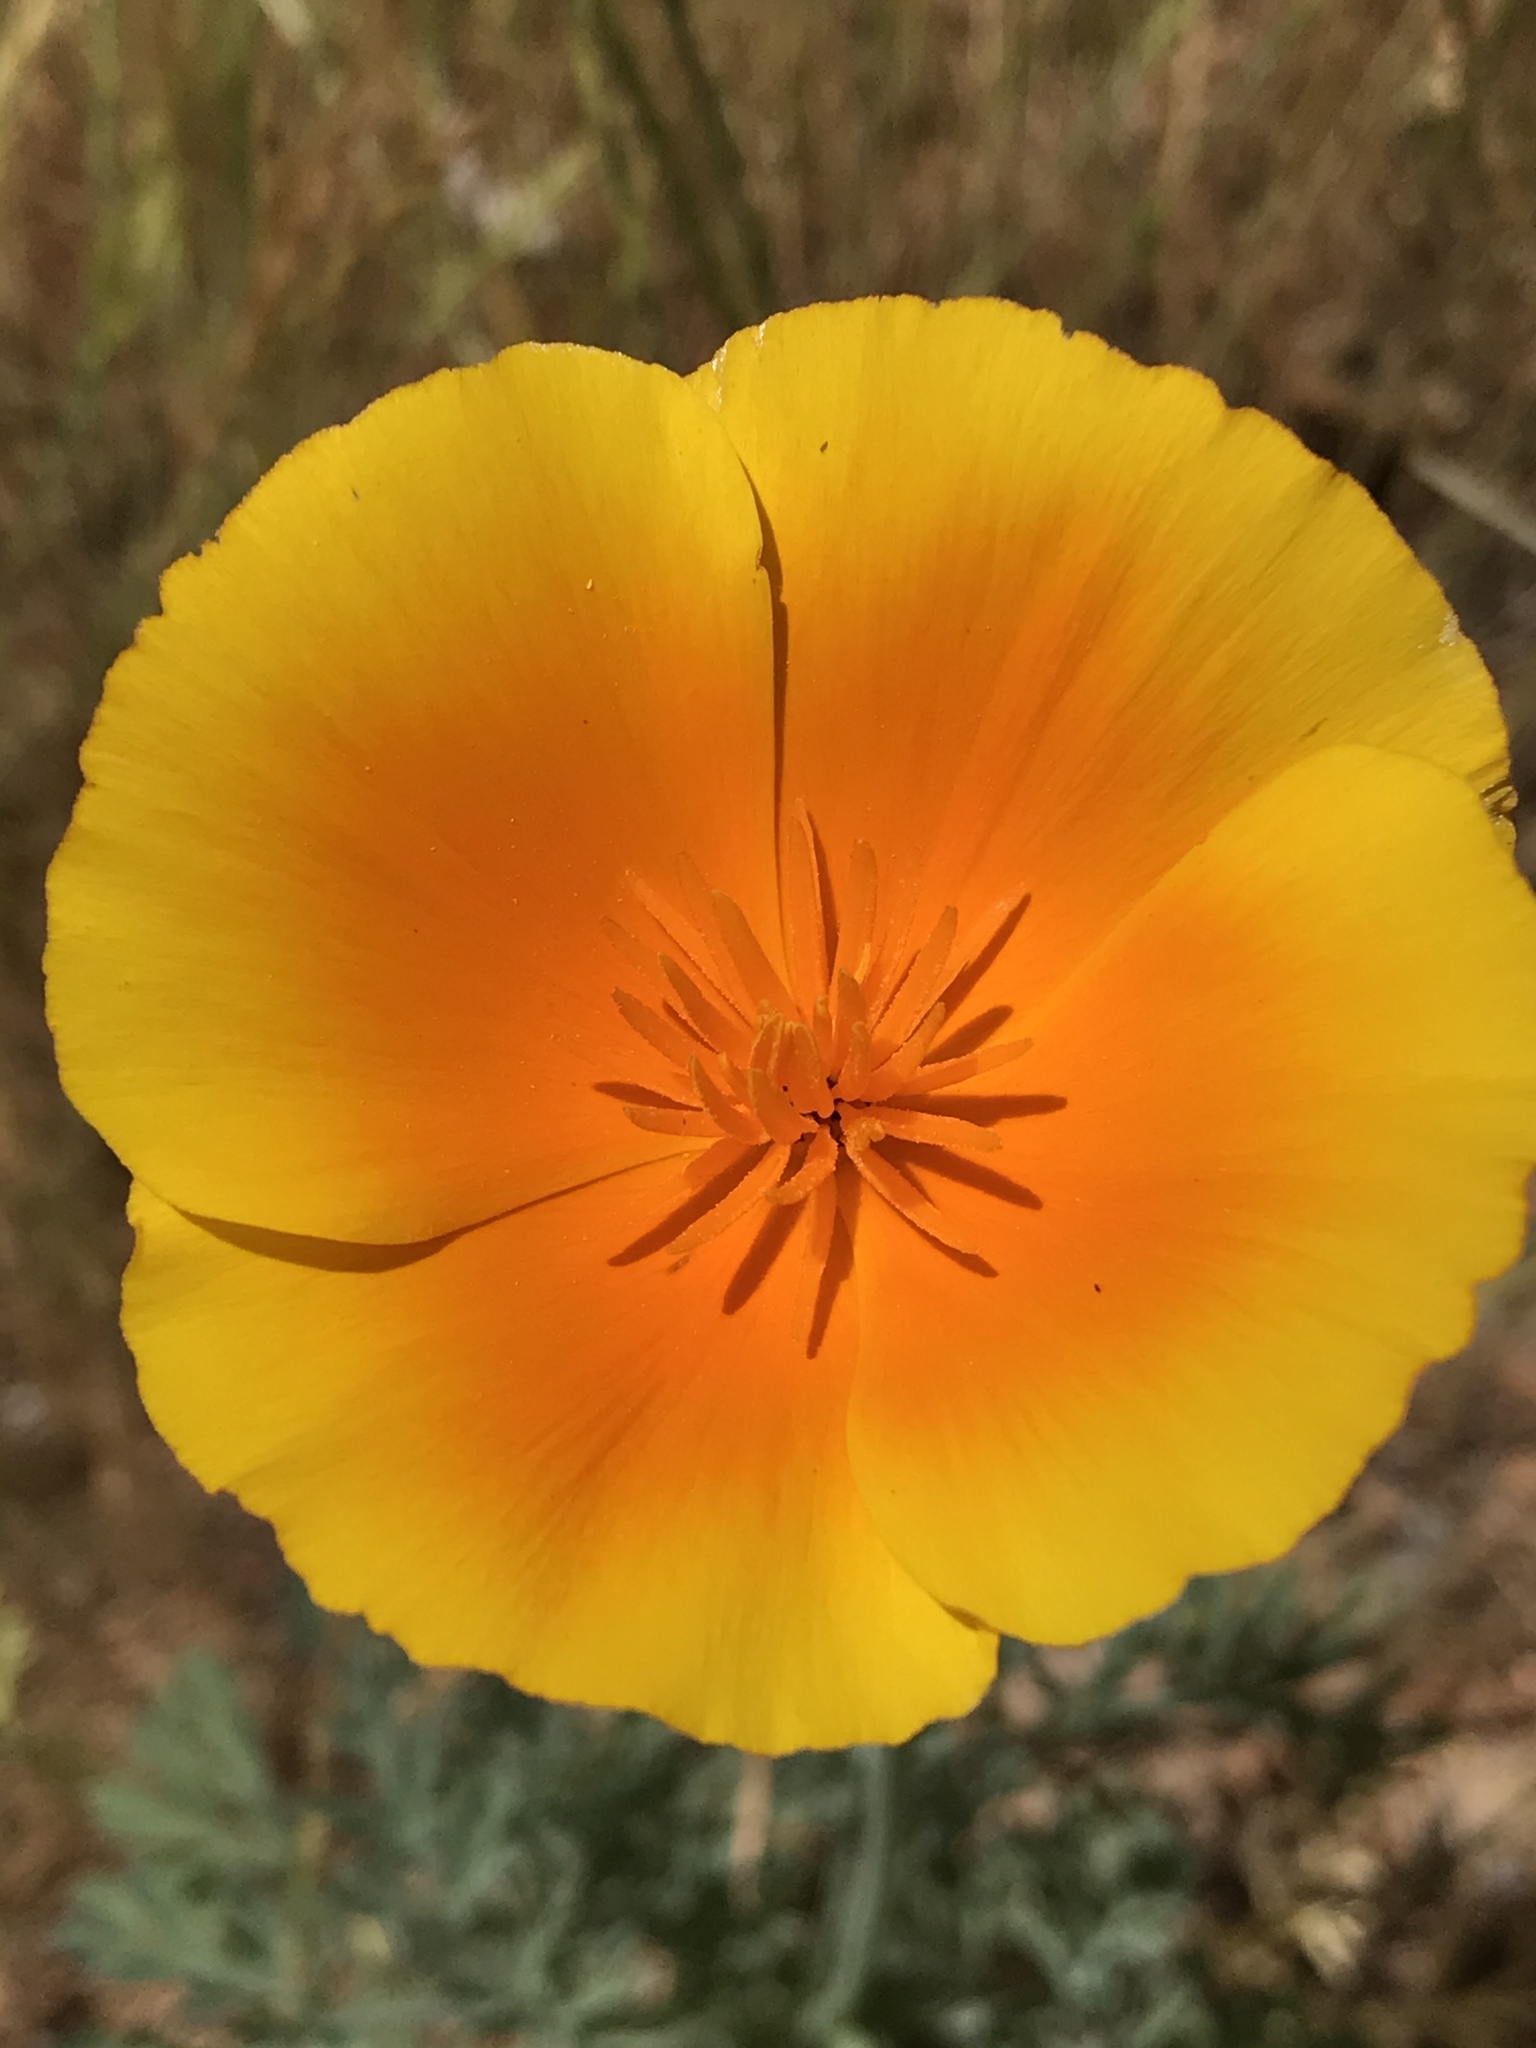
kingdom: Plantae
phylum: Tracheophyta
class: Magnoliopsida
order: Ranunculales
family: Papaveraceae
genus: Eschscholzia
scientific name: Eschscholzia californica
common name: California poppy
